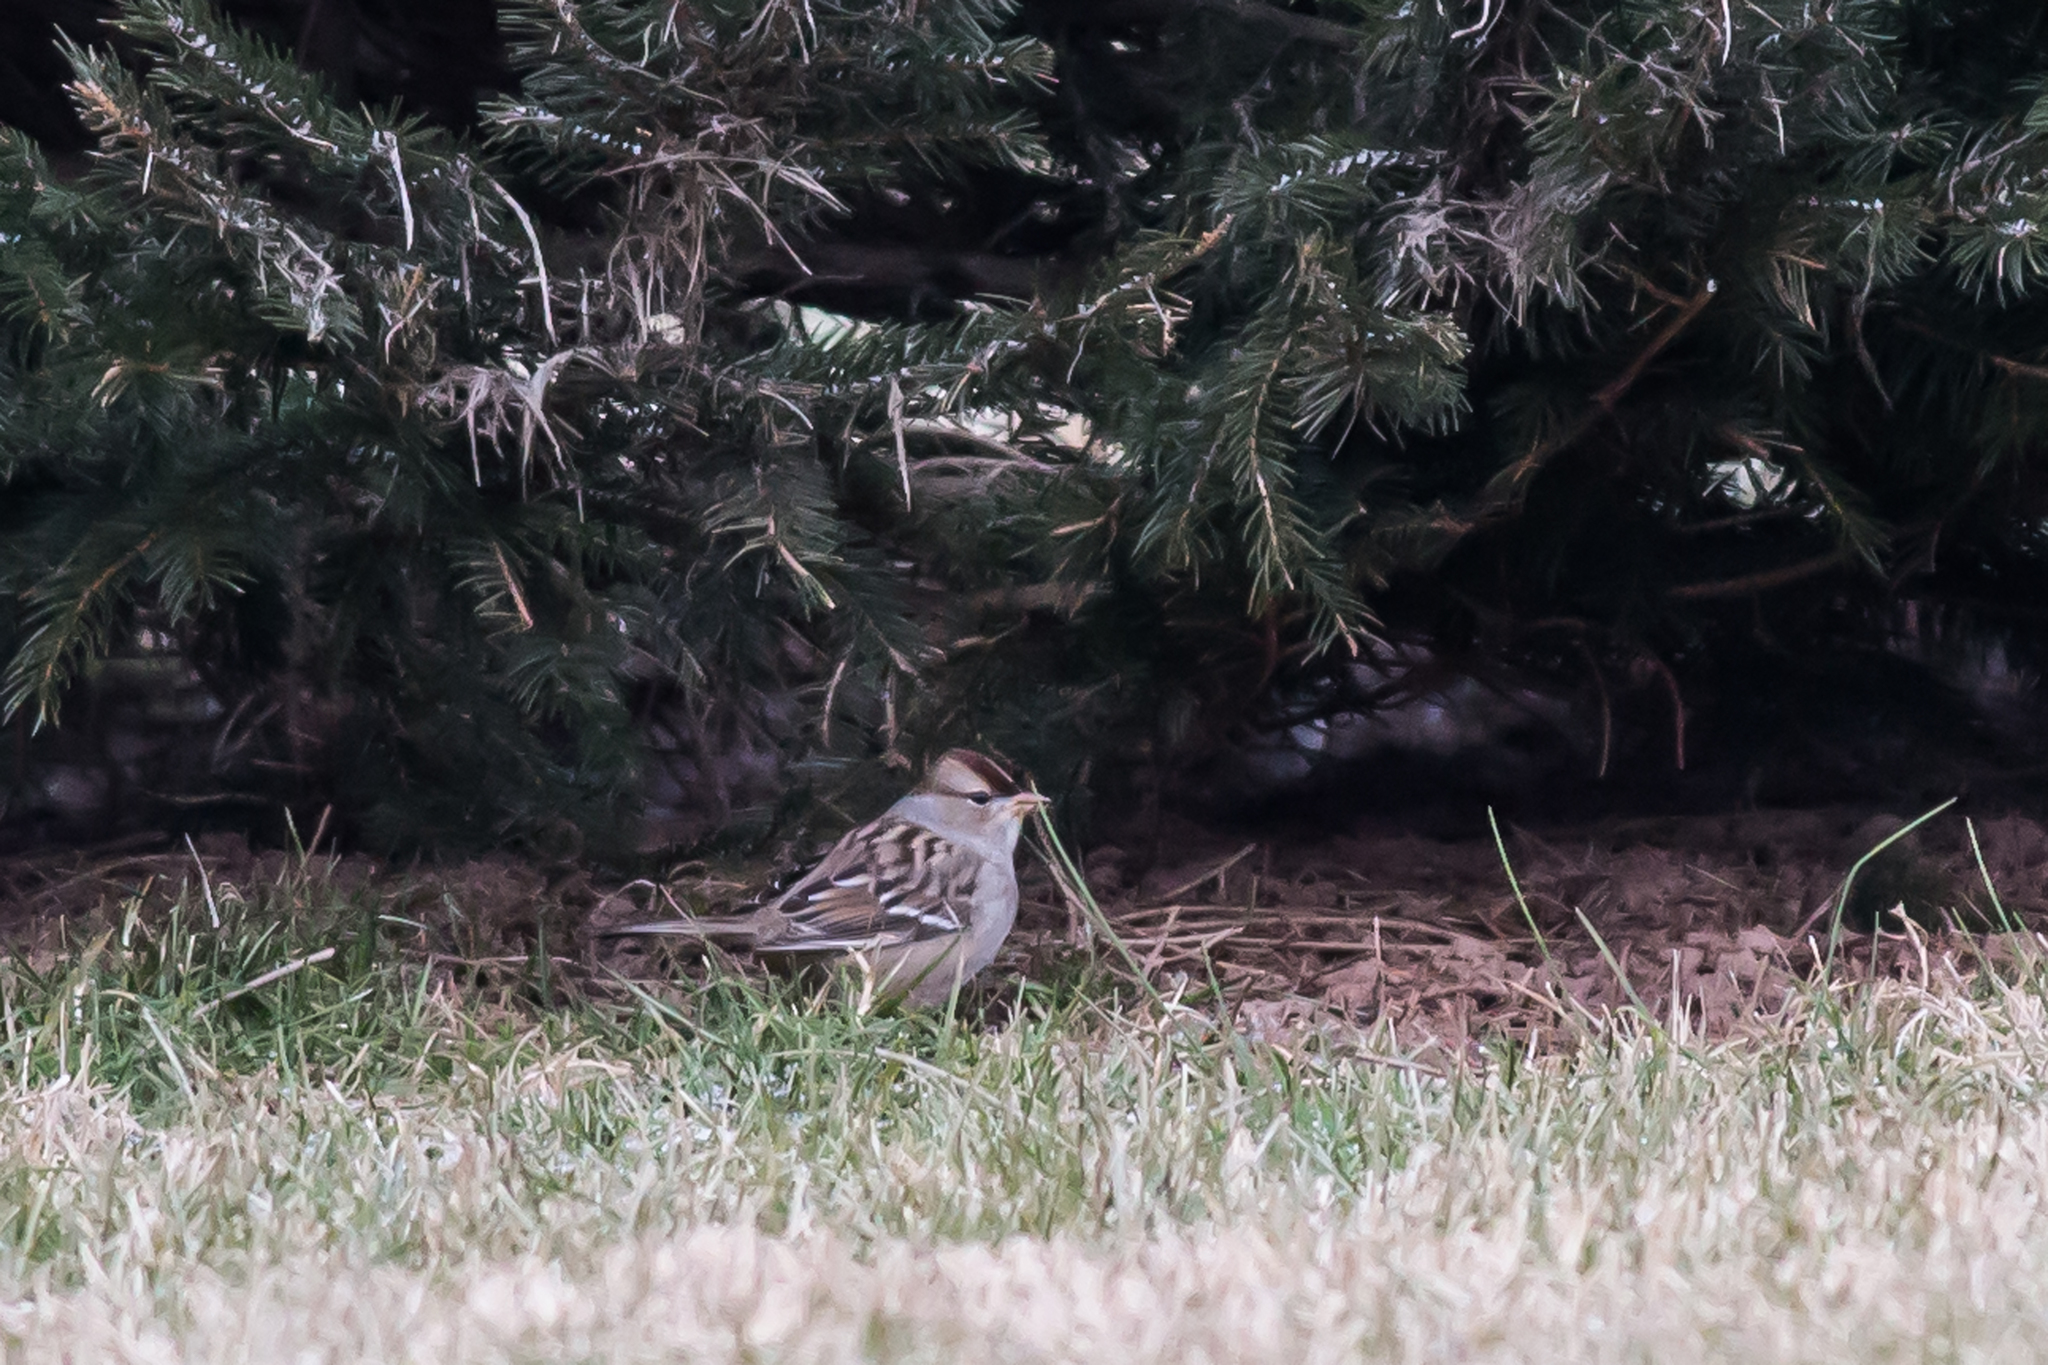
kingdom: Animalia
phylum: Chordata
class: Aves
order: Passeriformes
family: Passerellidae
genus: Zonotrichia
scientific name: Zonotrichia leucophrys
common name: White-crowned sparrow
